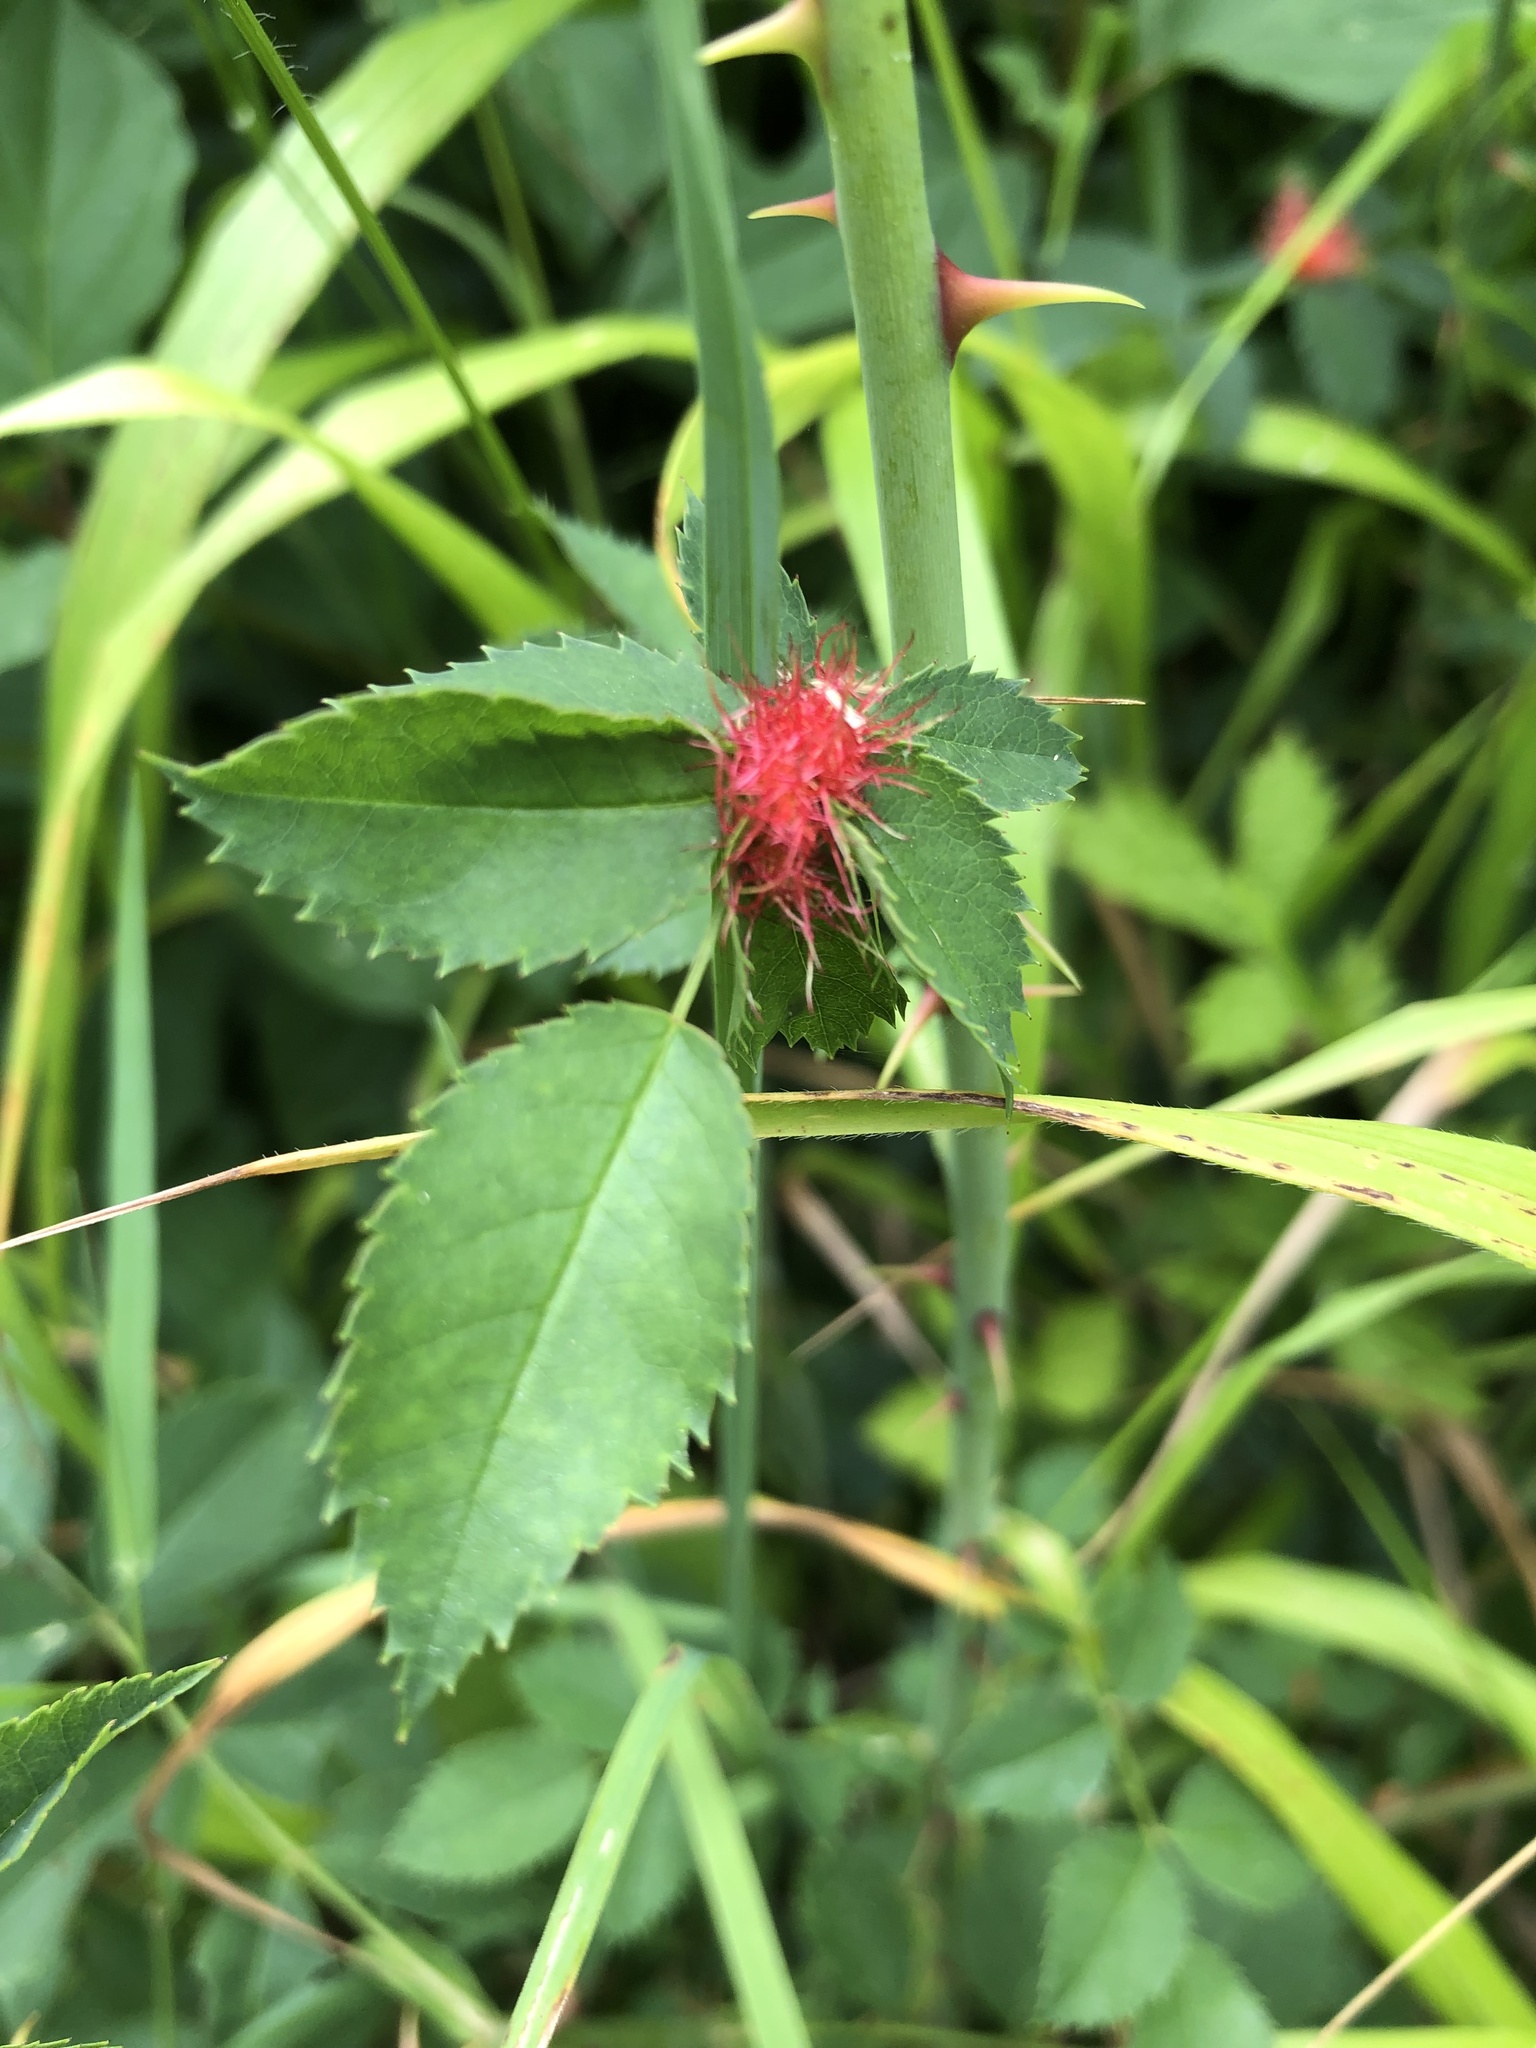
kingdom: Animalia
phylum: Arthropoda
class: Insecta
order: Hymenoptera
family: Cynipidae
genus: Diplolepis
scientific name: Diplolepis rosae
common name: Bedeguar gall
